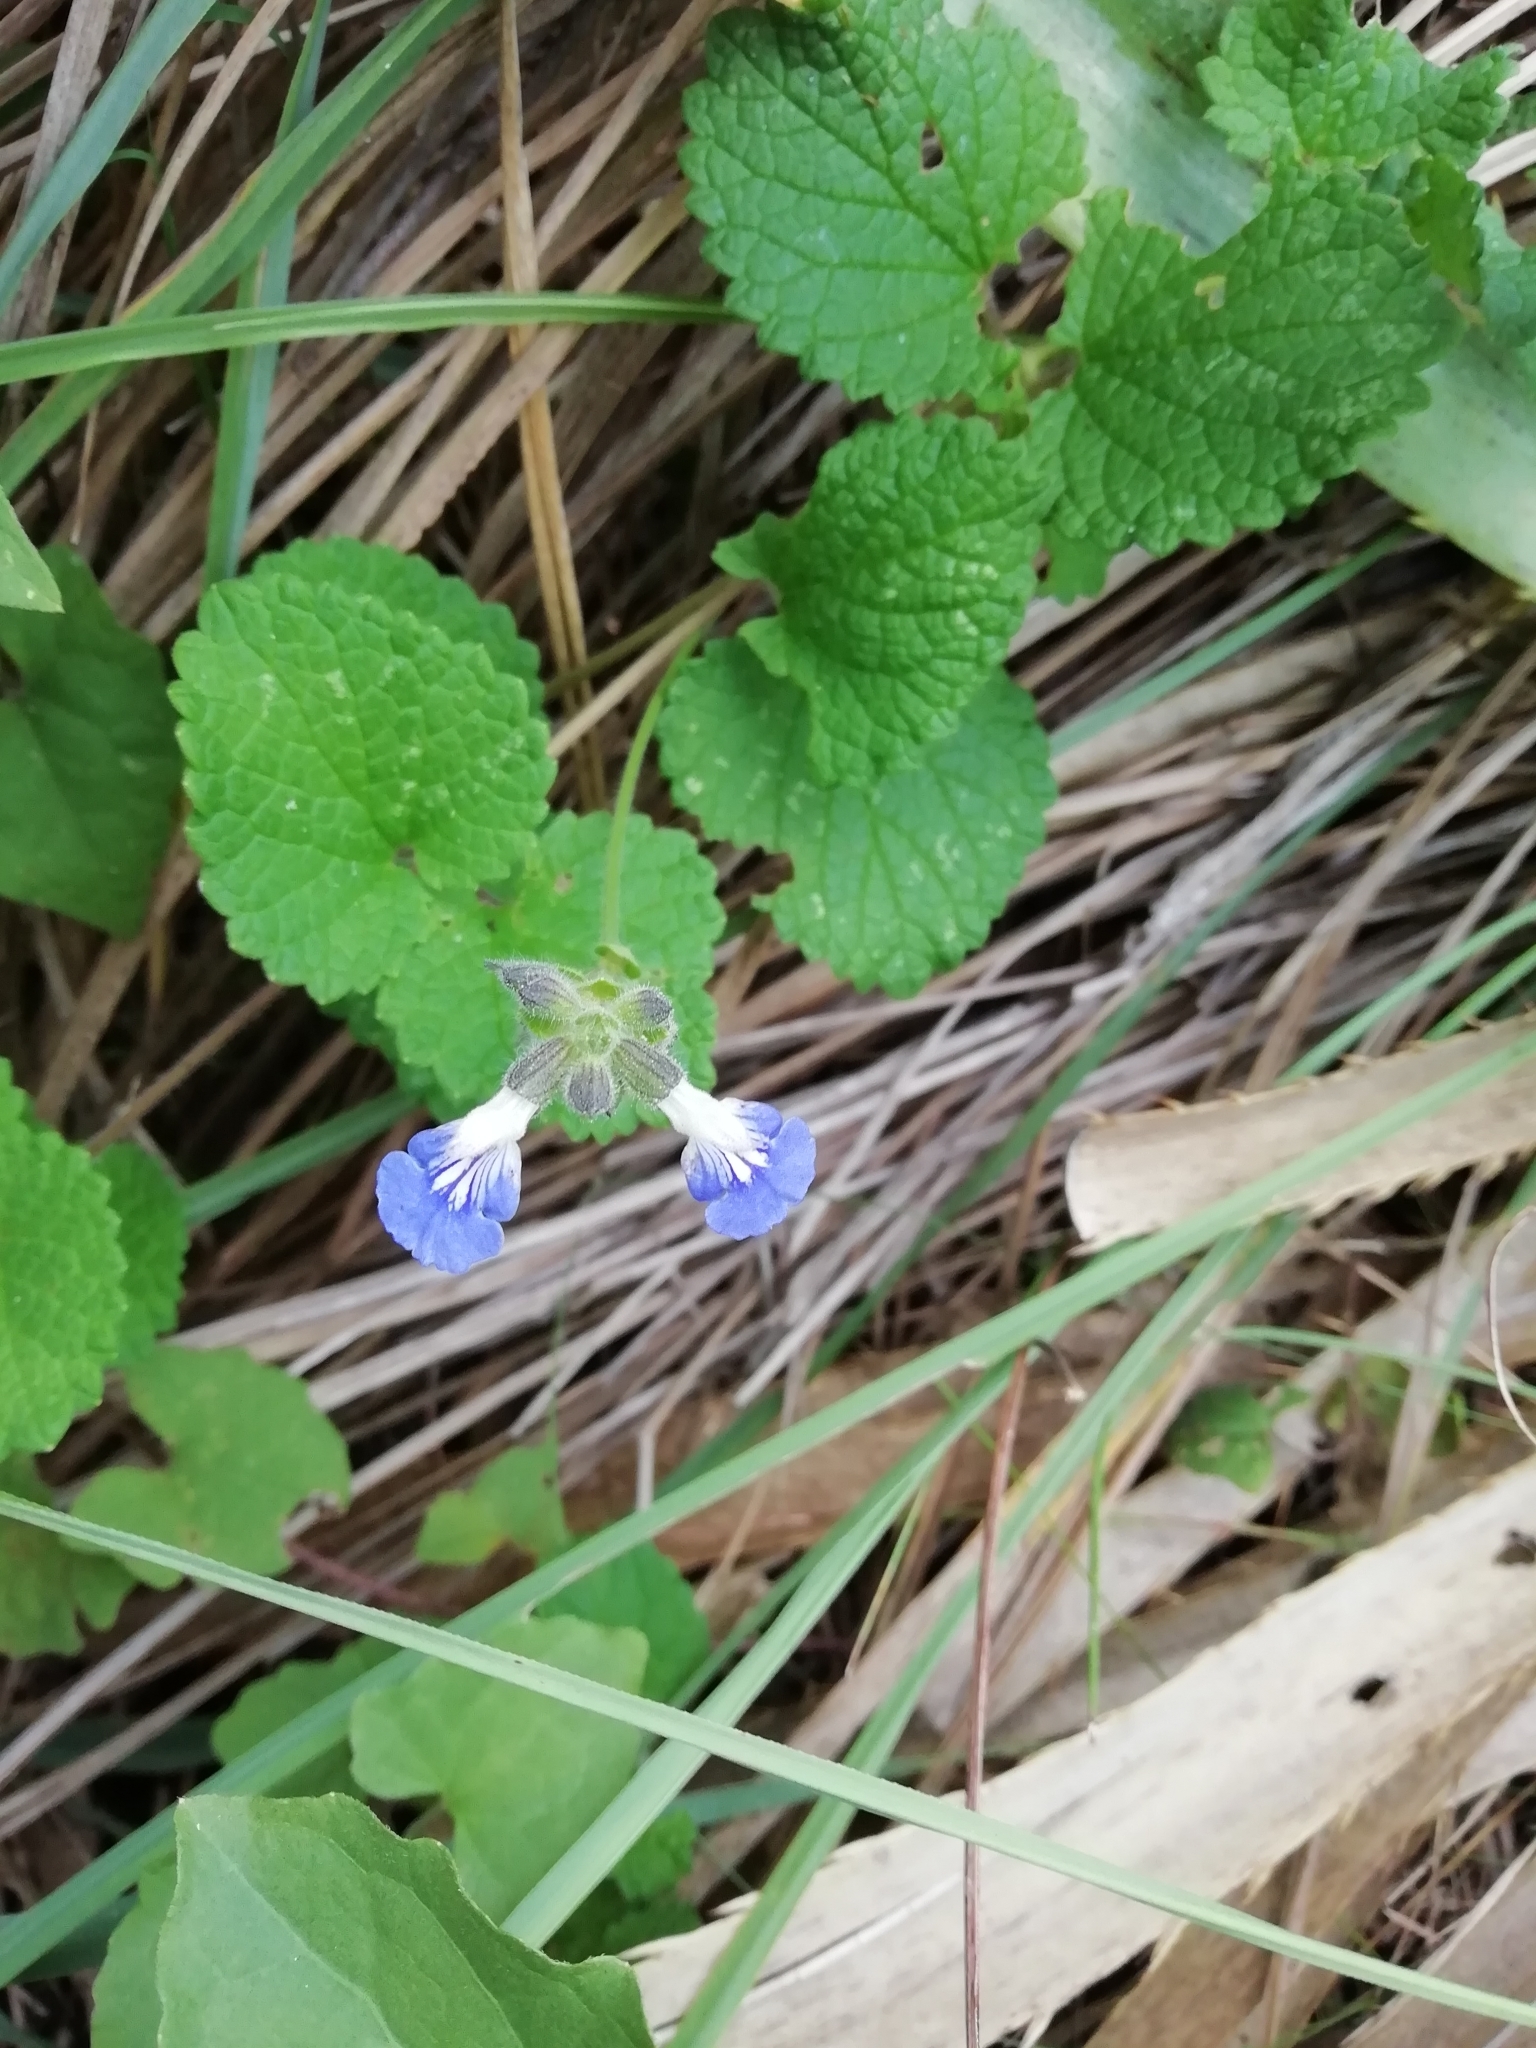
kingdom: Plantae
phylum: Tracheophyta
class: Magnoliopsida
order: Lamiales
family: Lamiaceae
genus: Salvia
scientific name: Salvia procurrens
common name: Blue creeper
